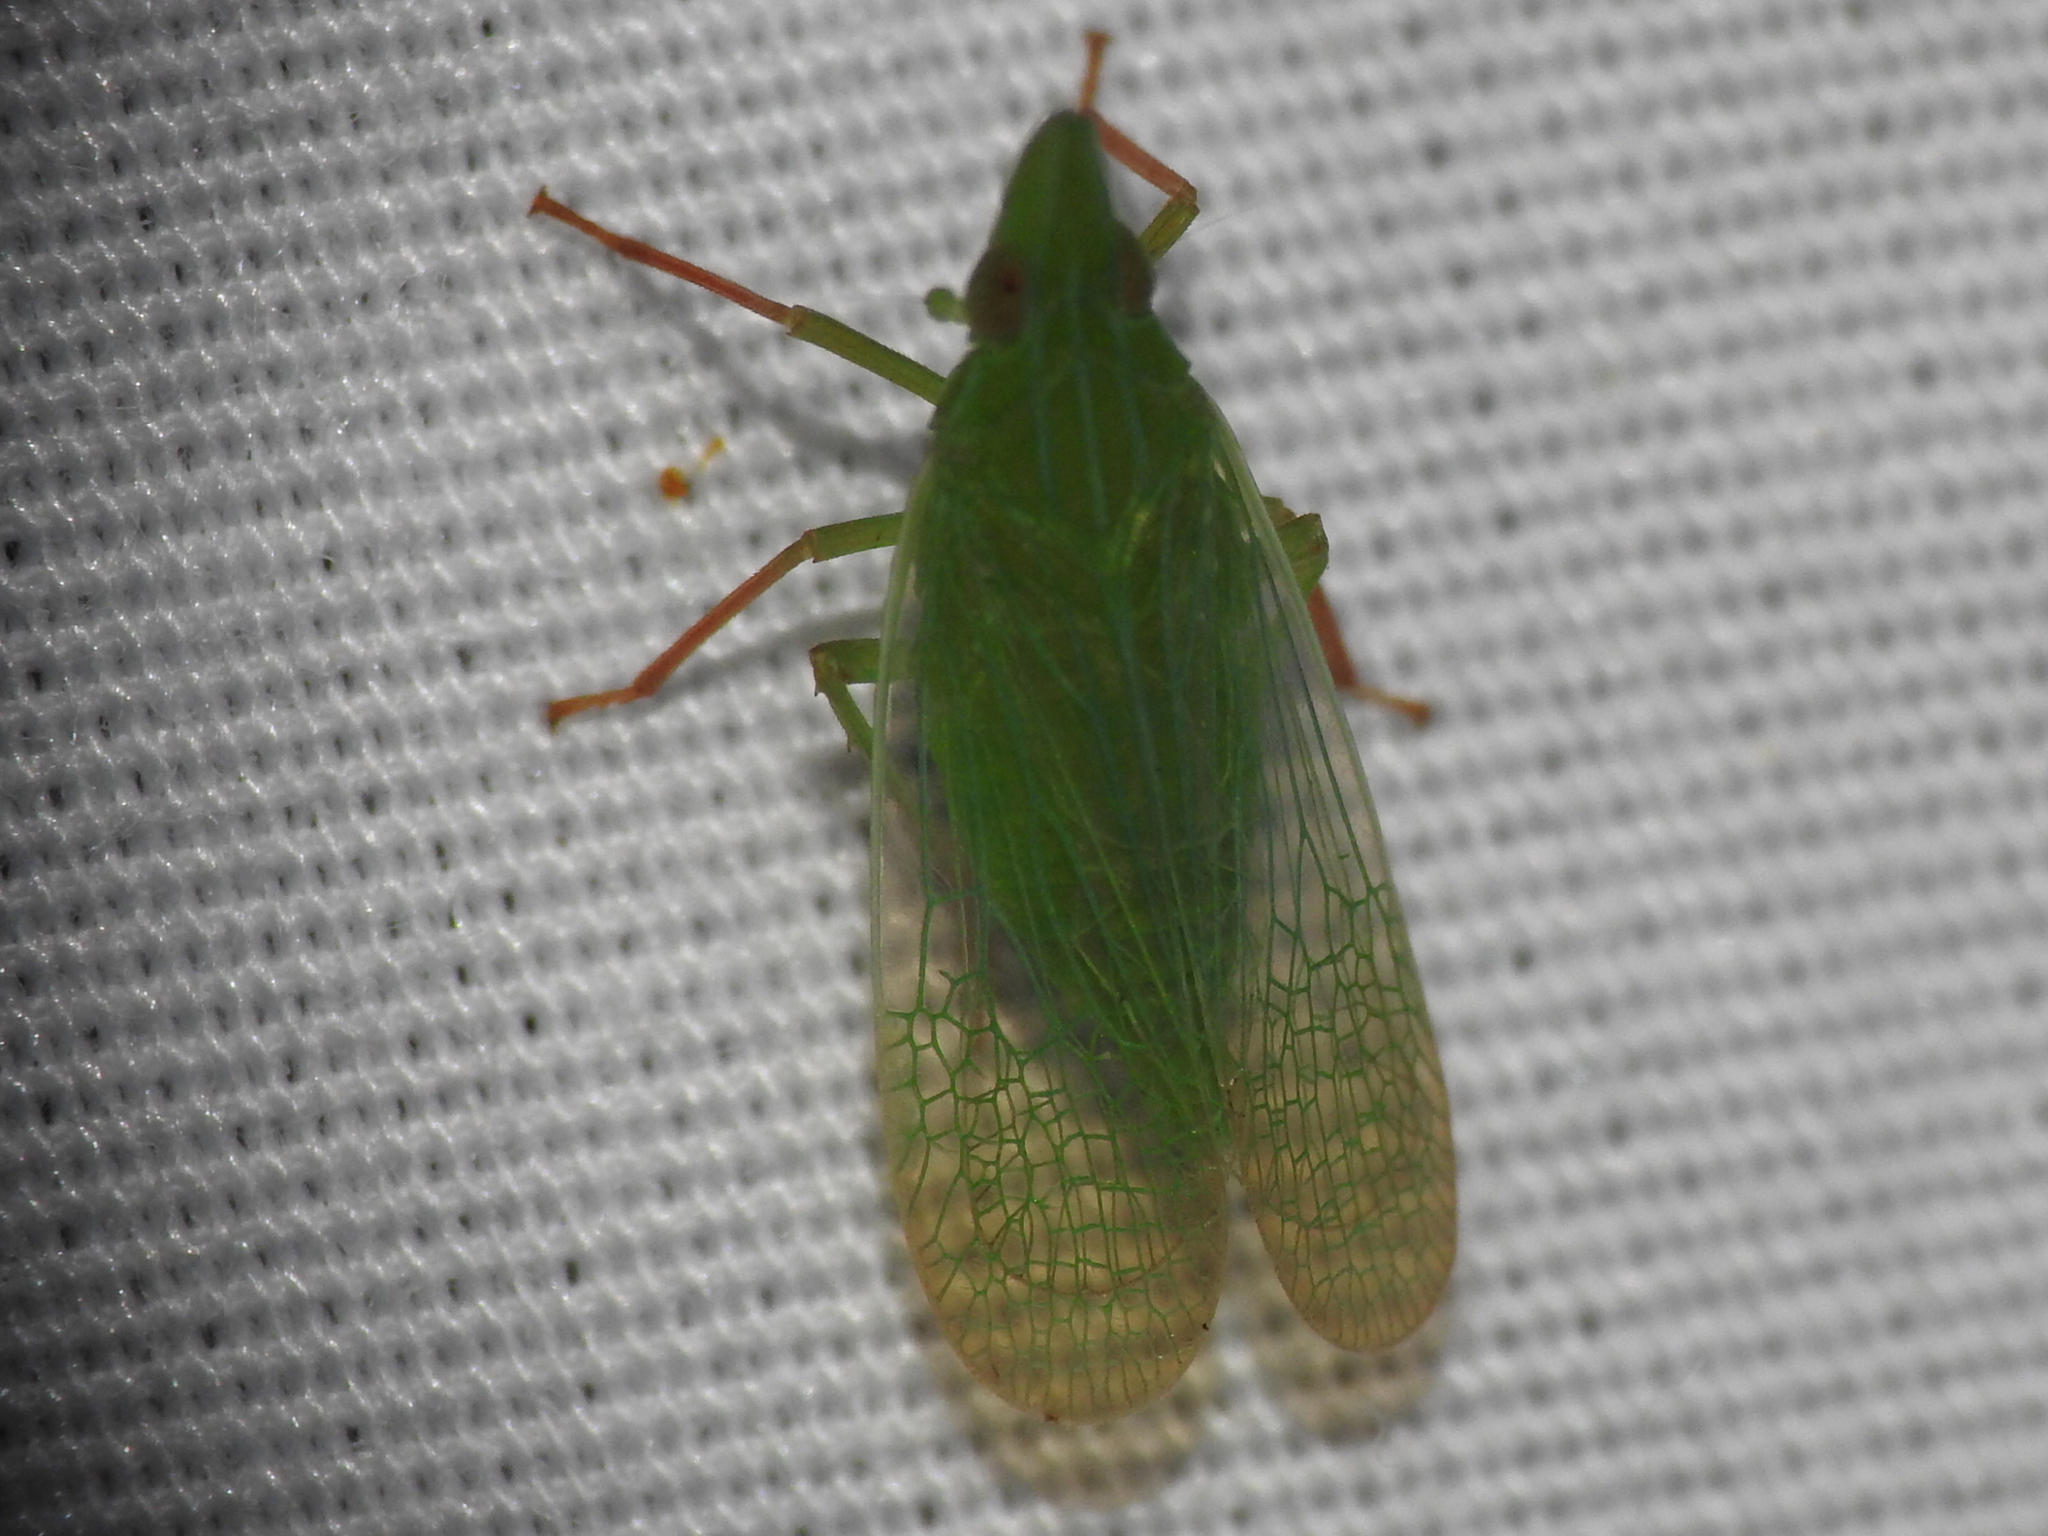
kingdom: Animalia
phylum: Arthropoda
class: Insecta
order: Hemiptera
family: Dictyopharidae
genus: Rhynchomitra
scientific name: Rhynchomitra recurva
